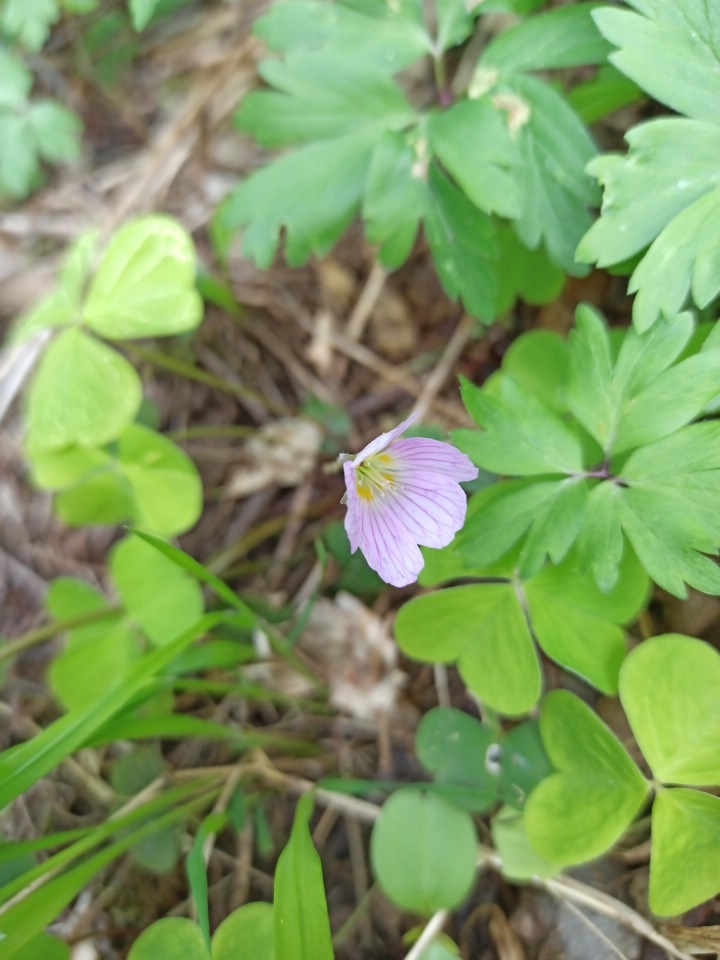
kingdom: Plantae
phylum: Tracheophyta
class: Magnoliopsida
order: Oxalidales
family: Oxalidaceae
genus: Oxalis
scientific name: Oxalis acetosella
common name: Wood-sorrel
